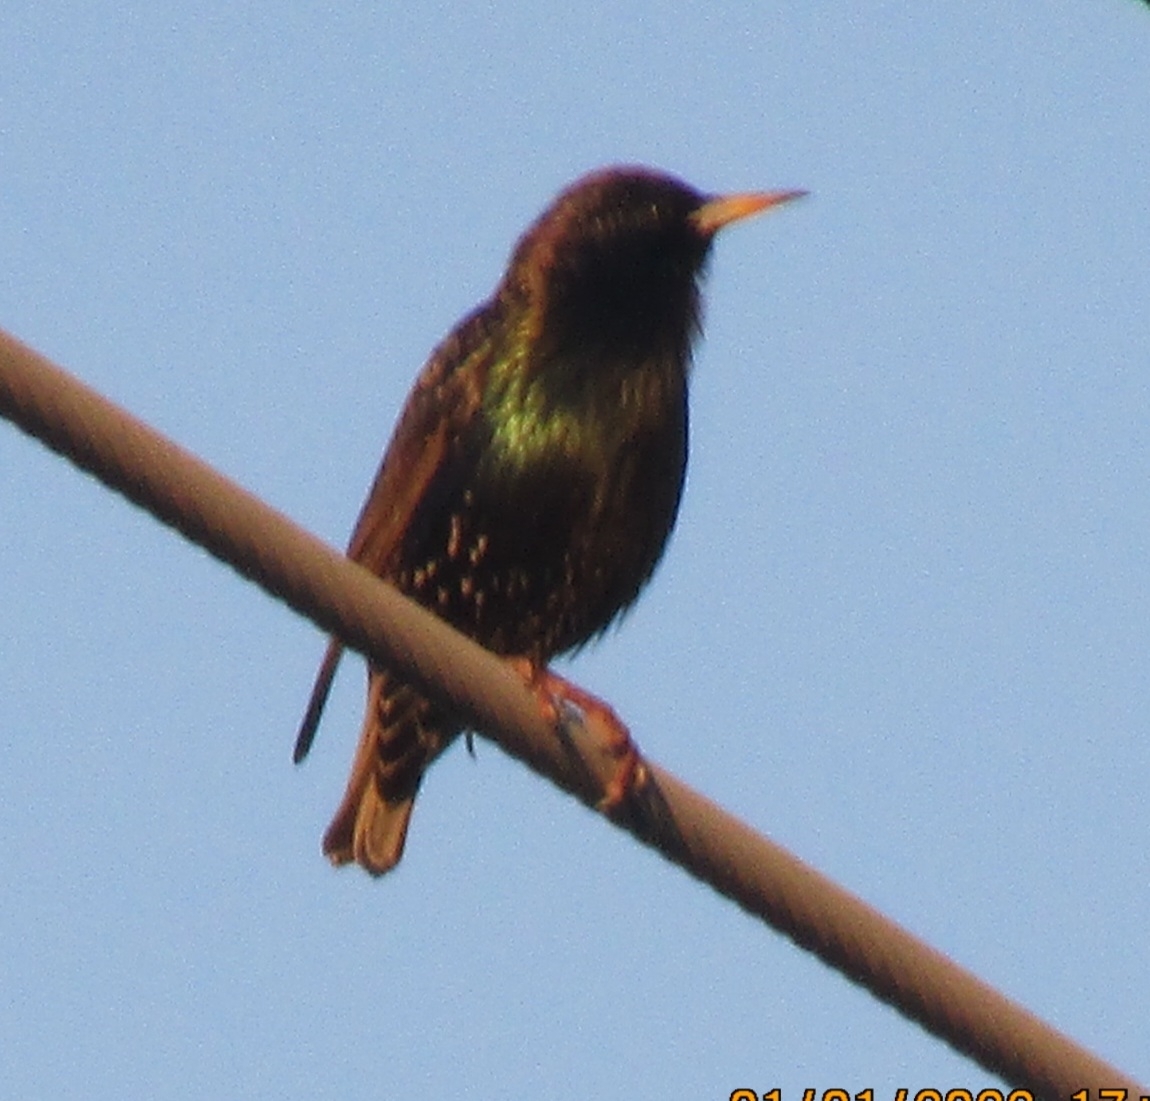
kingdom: Animalia
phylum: Chordata
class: Aves
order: Passeriformes
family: Sturnidae
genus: Sturnus
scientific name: Sturnus vulgaris
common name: Common starling
